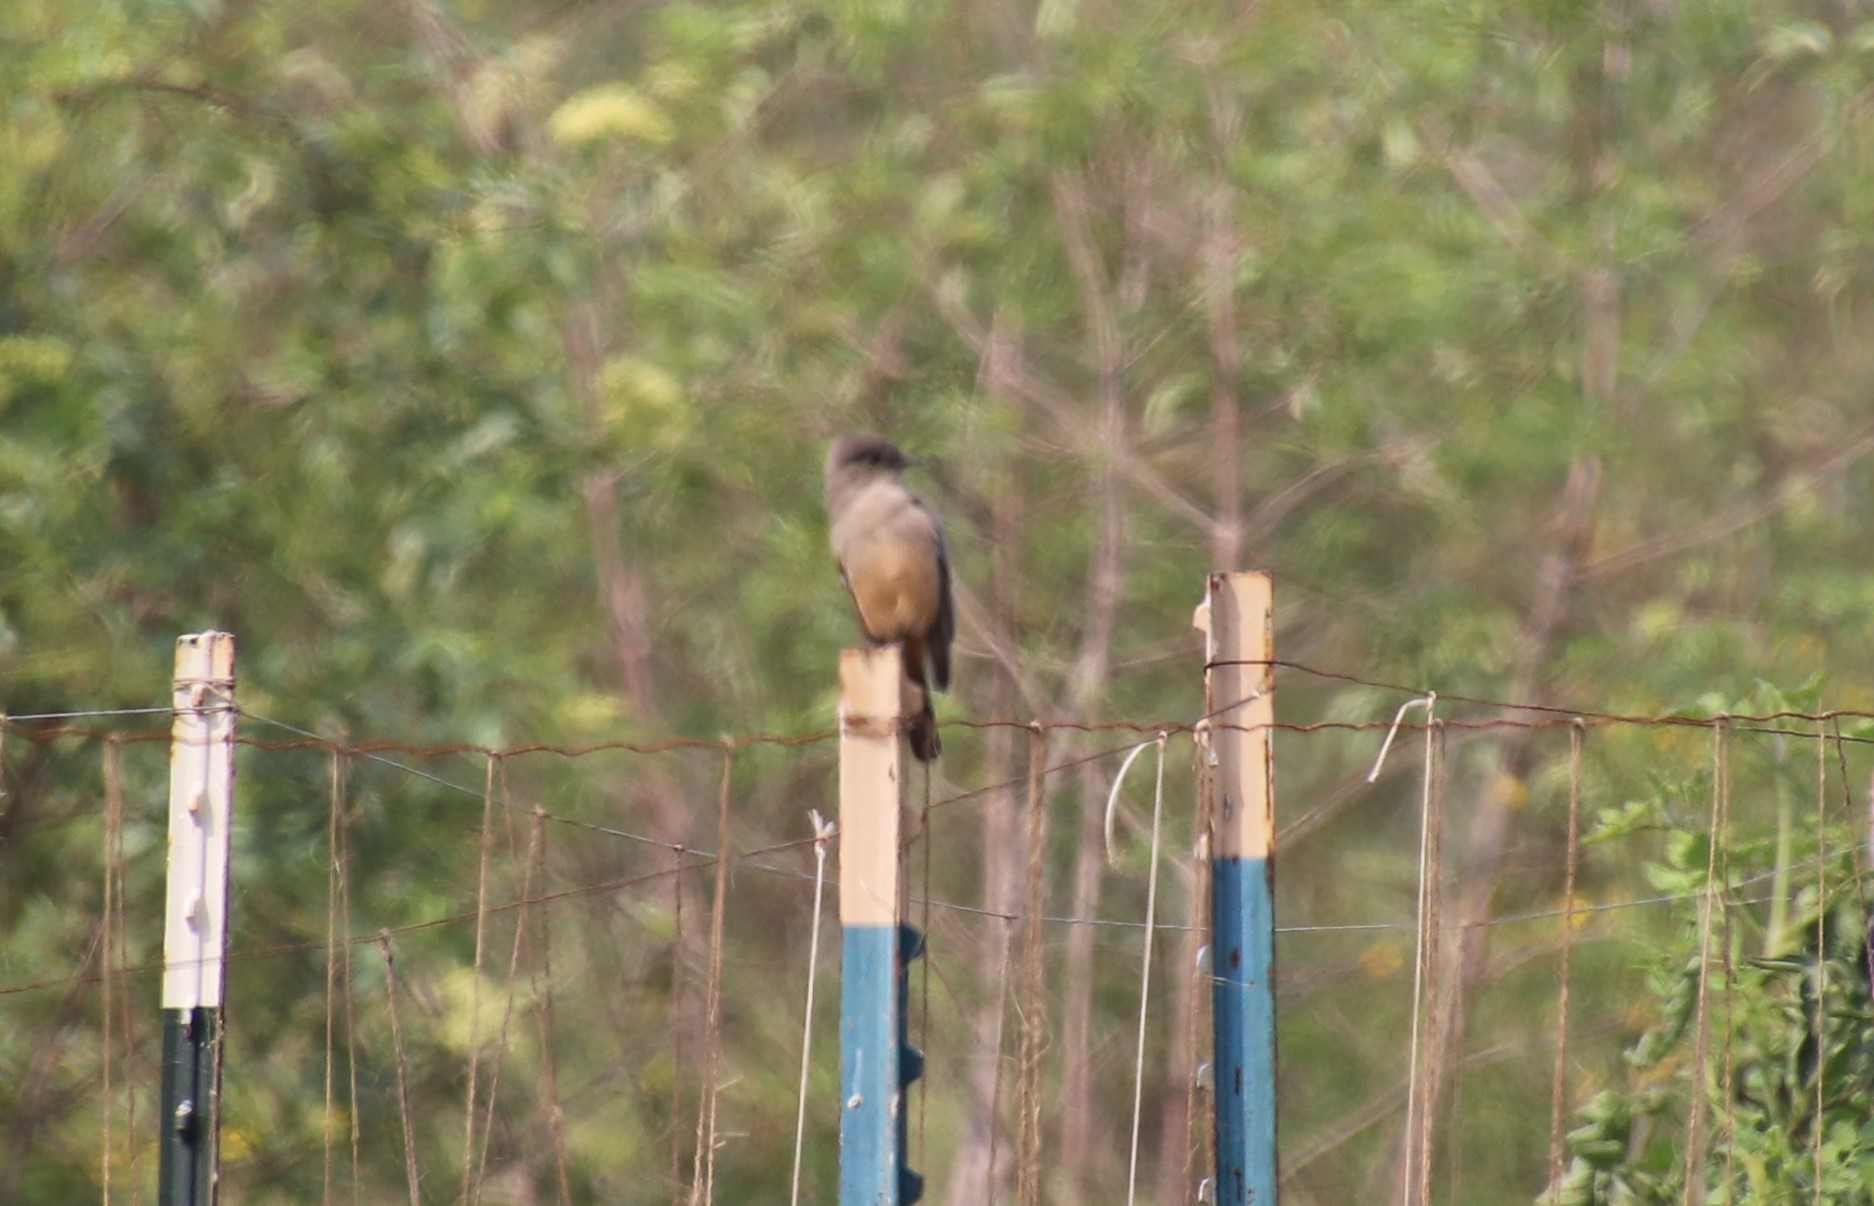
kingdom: Animalia
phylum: Chordata
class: Aves
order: Passeriformes
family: Tyrannidae
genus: Sayornis
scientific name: Sayornis saya
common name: Say's phoebe
